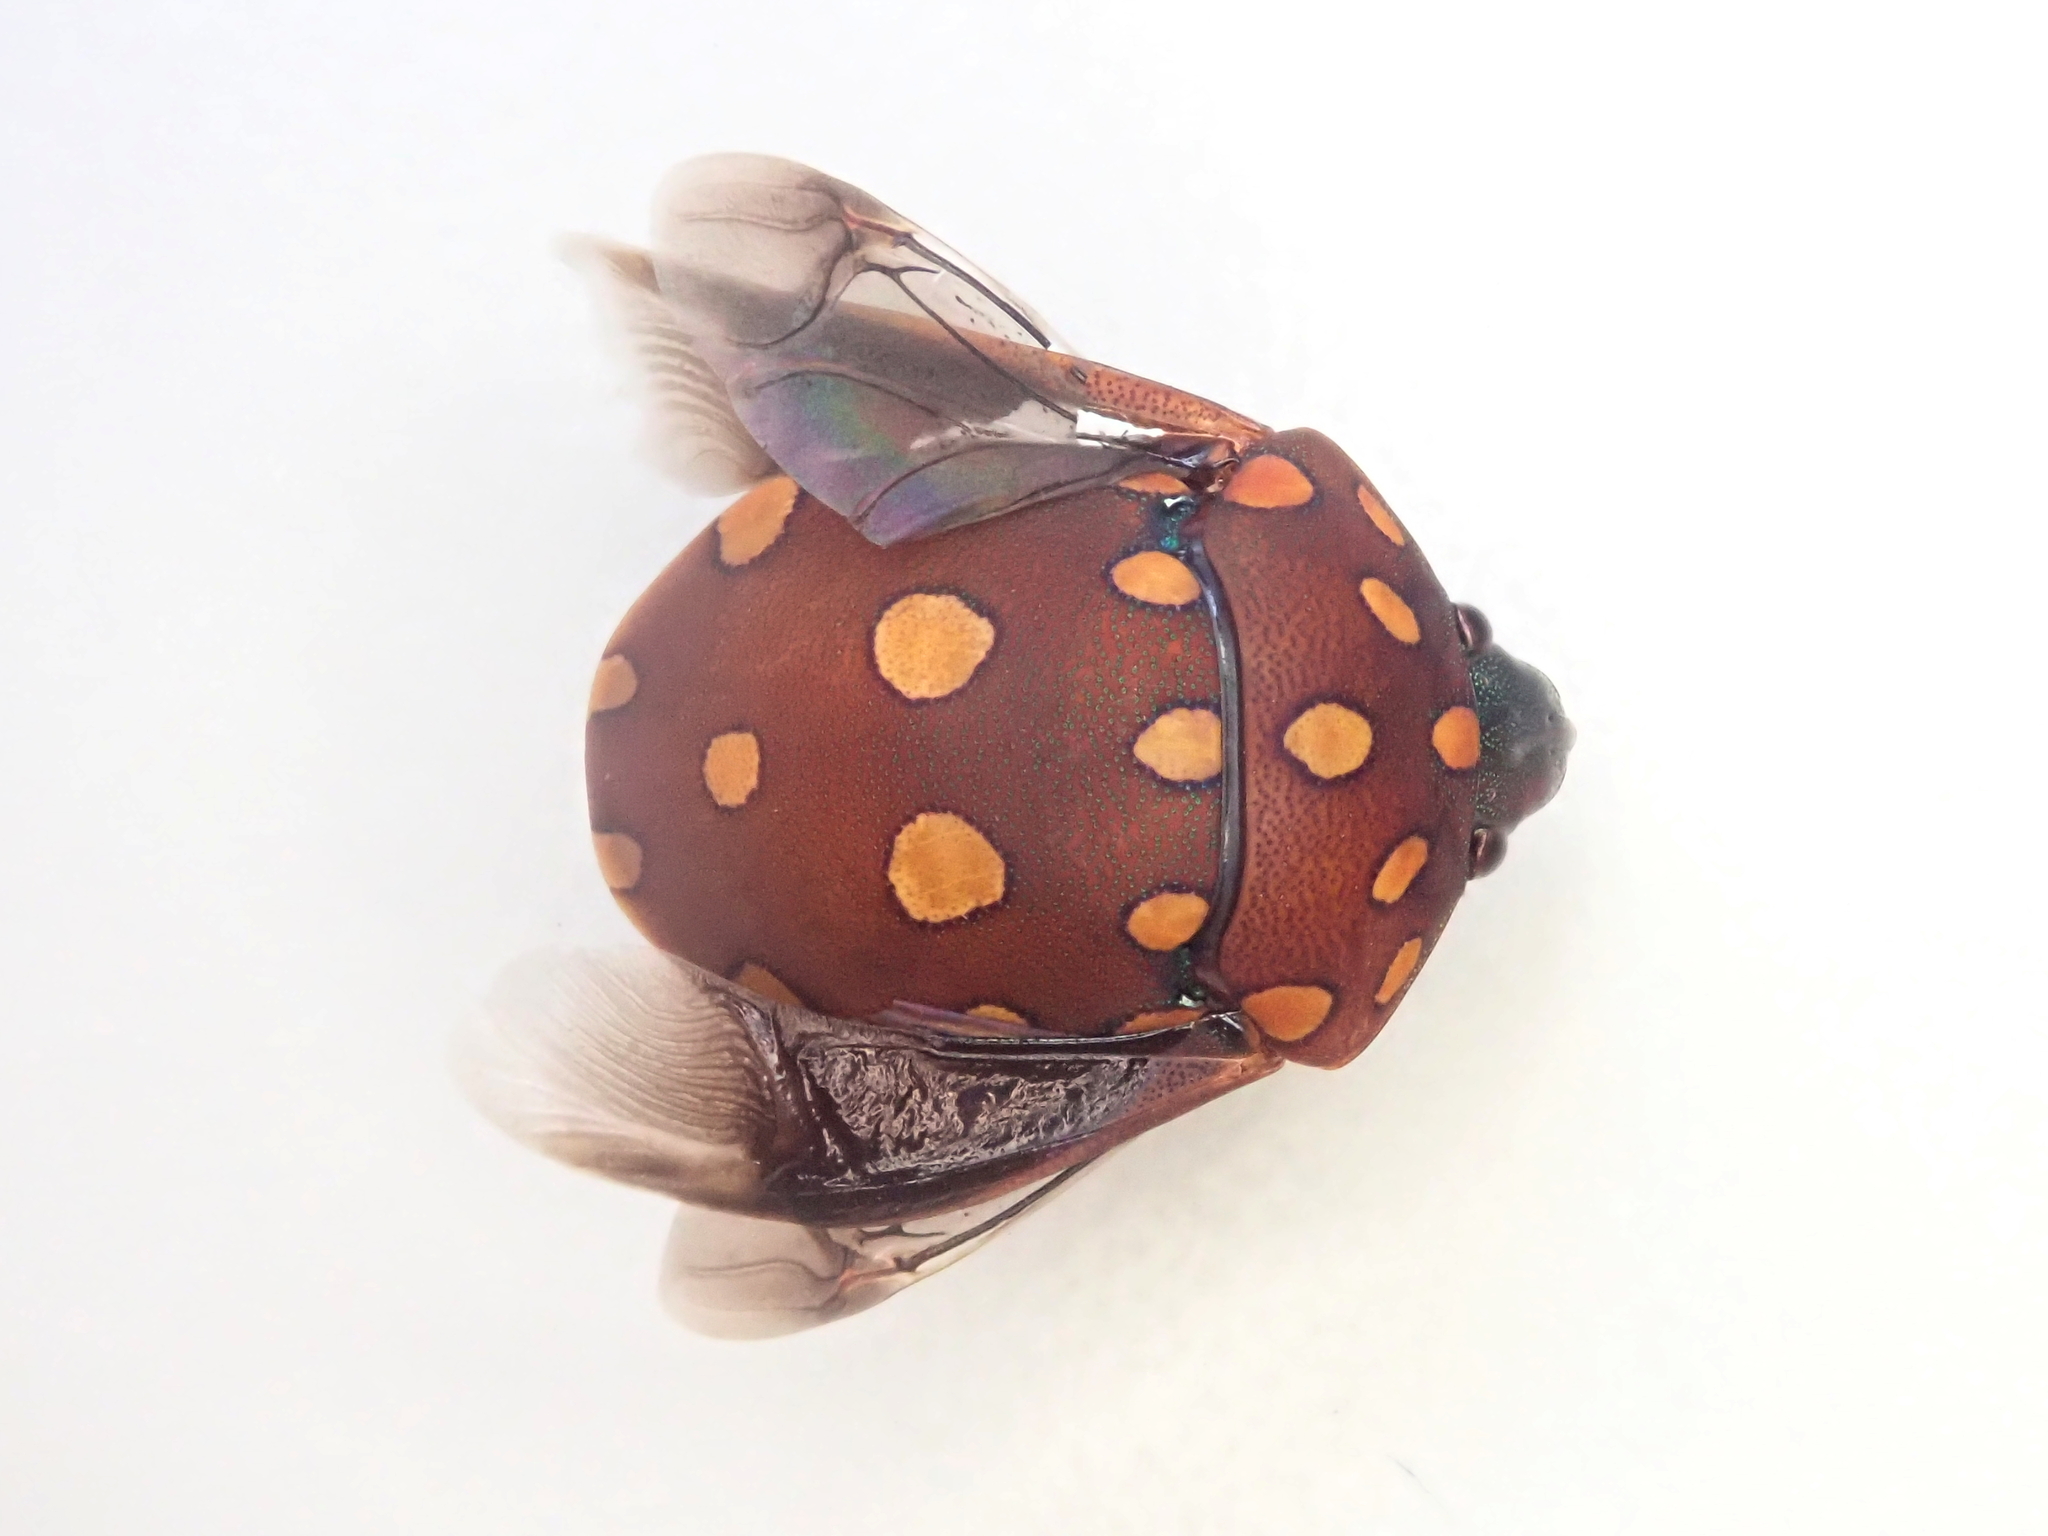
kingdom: Animalia
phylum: Arthropoda
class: Insecta
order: Hemiptera
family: Scutelleridae
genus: Pachycoris
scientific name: Pachycoris torridus
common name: Torrid jewel bug
